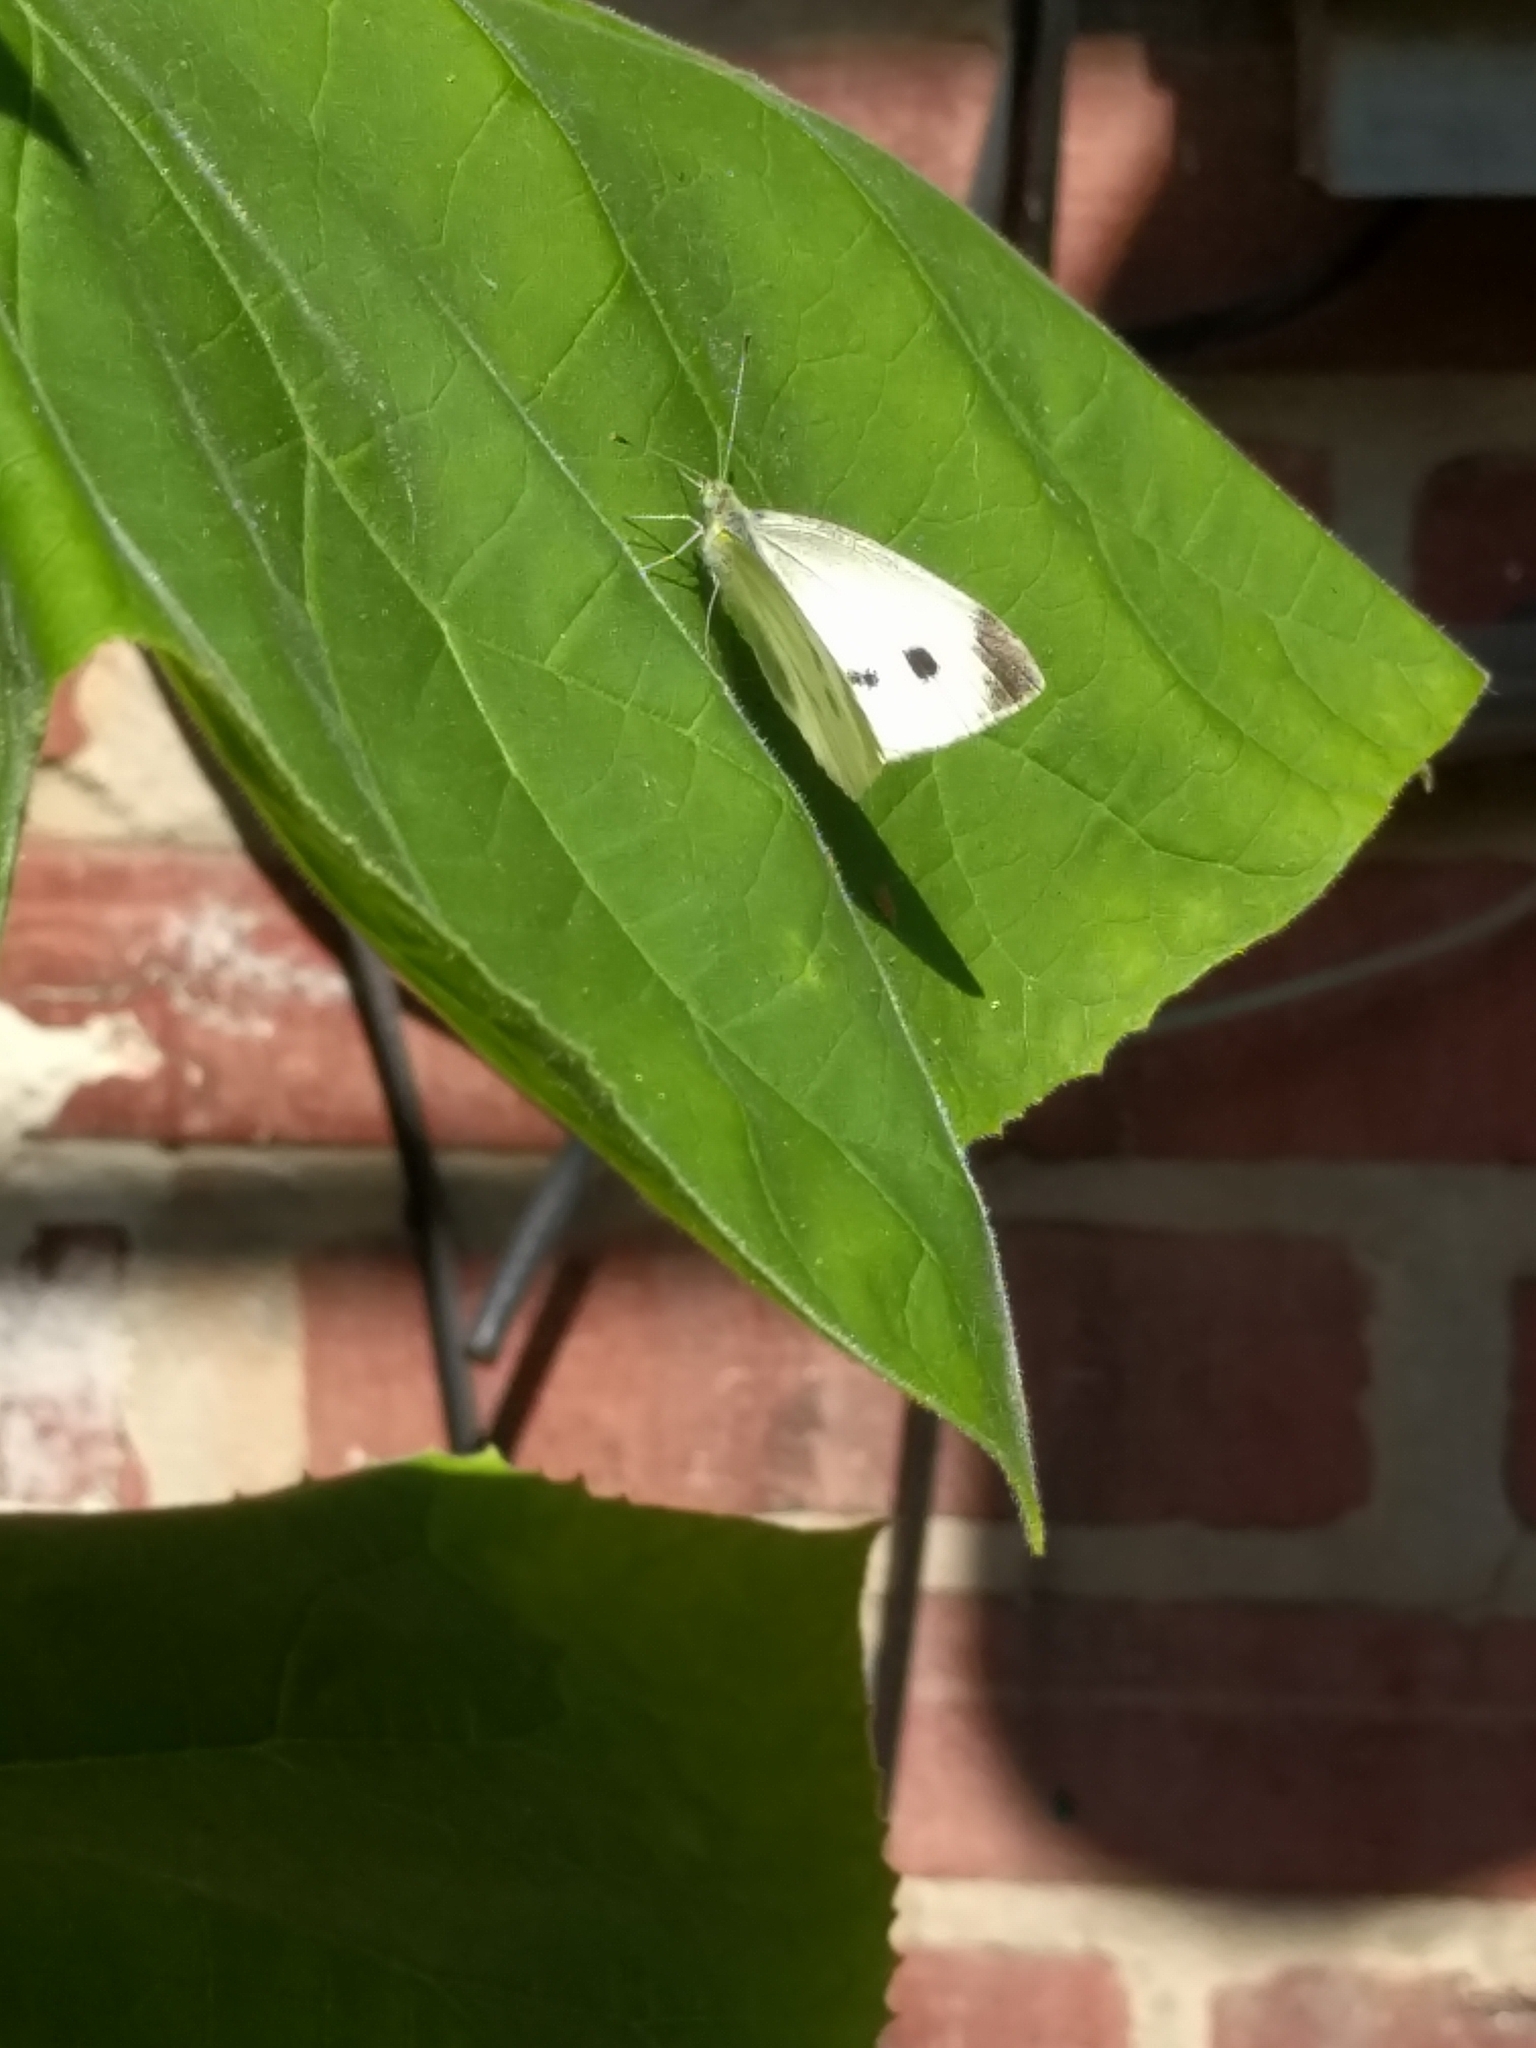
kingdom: Animalia
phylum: Arthropoda
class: Insecta
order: Lepidoptera
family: Pieridae
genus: Pieris
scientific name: Pieris rapae
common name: Small white
